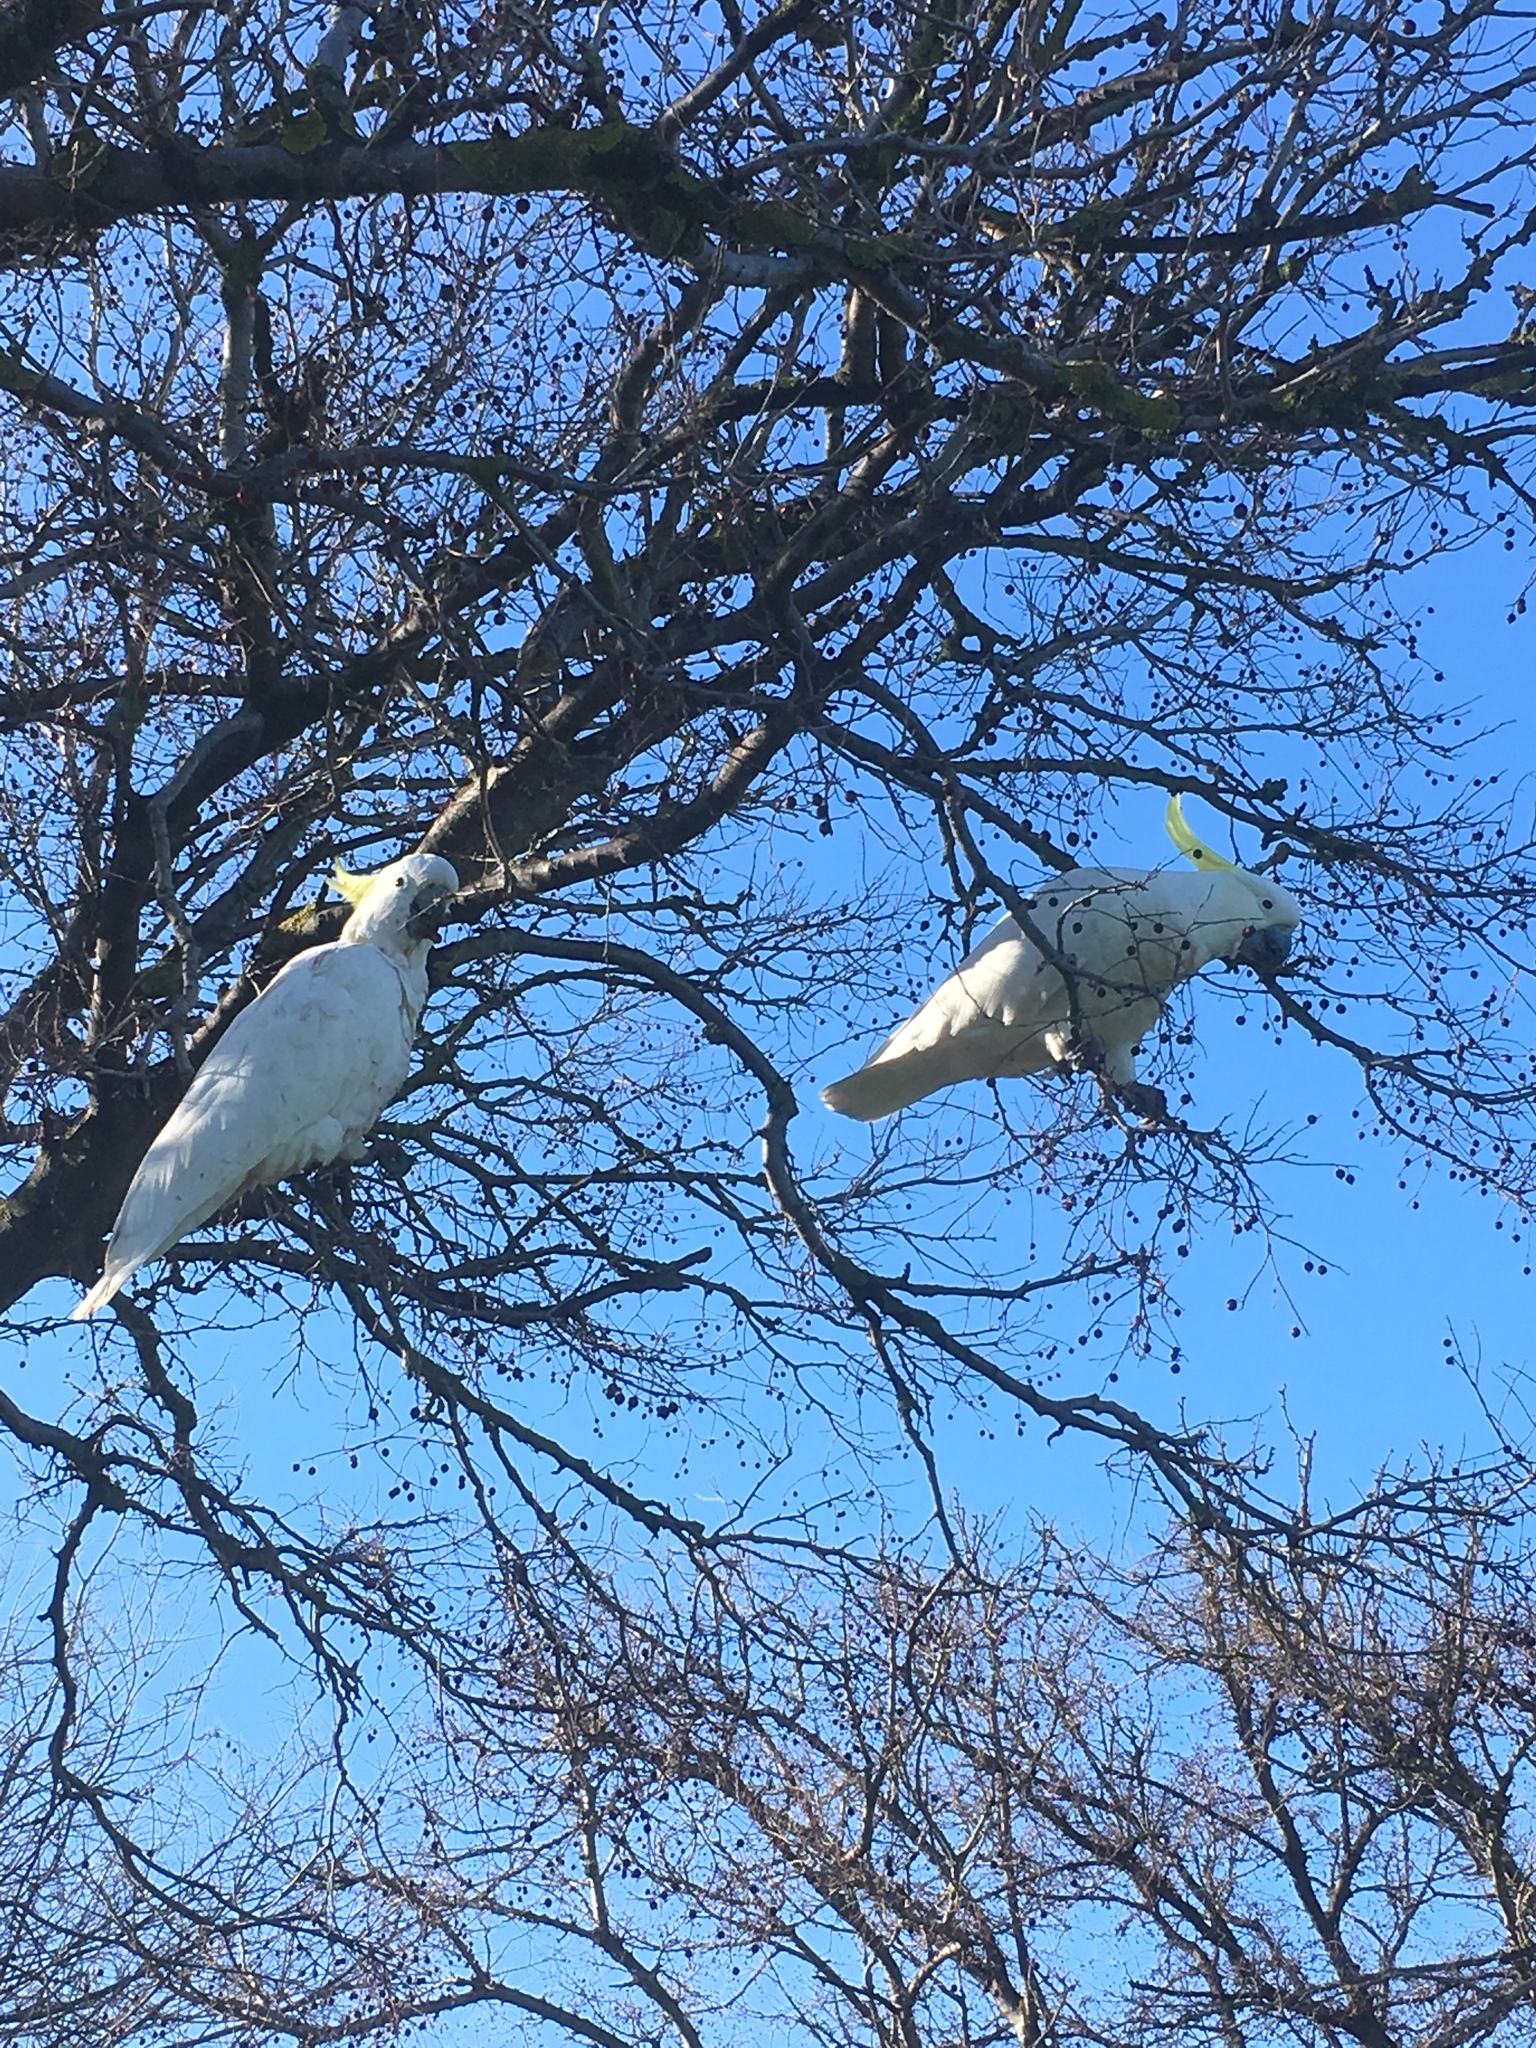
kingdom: Animalia
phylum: Chordata
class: Aves
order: Psittaciformes
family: Psittacidae
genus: Cacatua
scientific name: Cacatua galerita
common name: Sulphur-crested cockatoo
